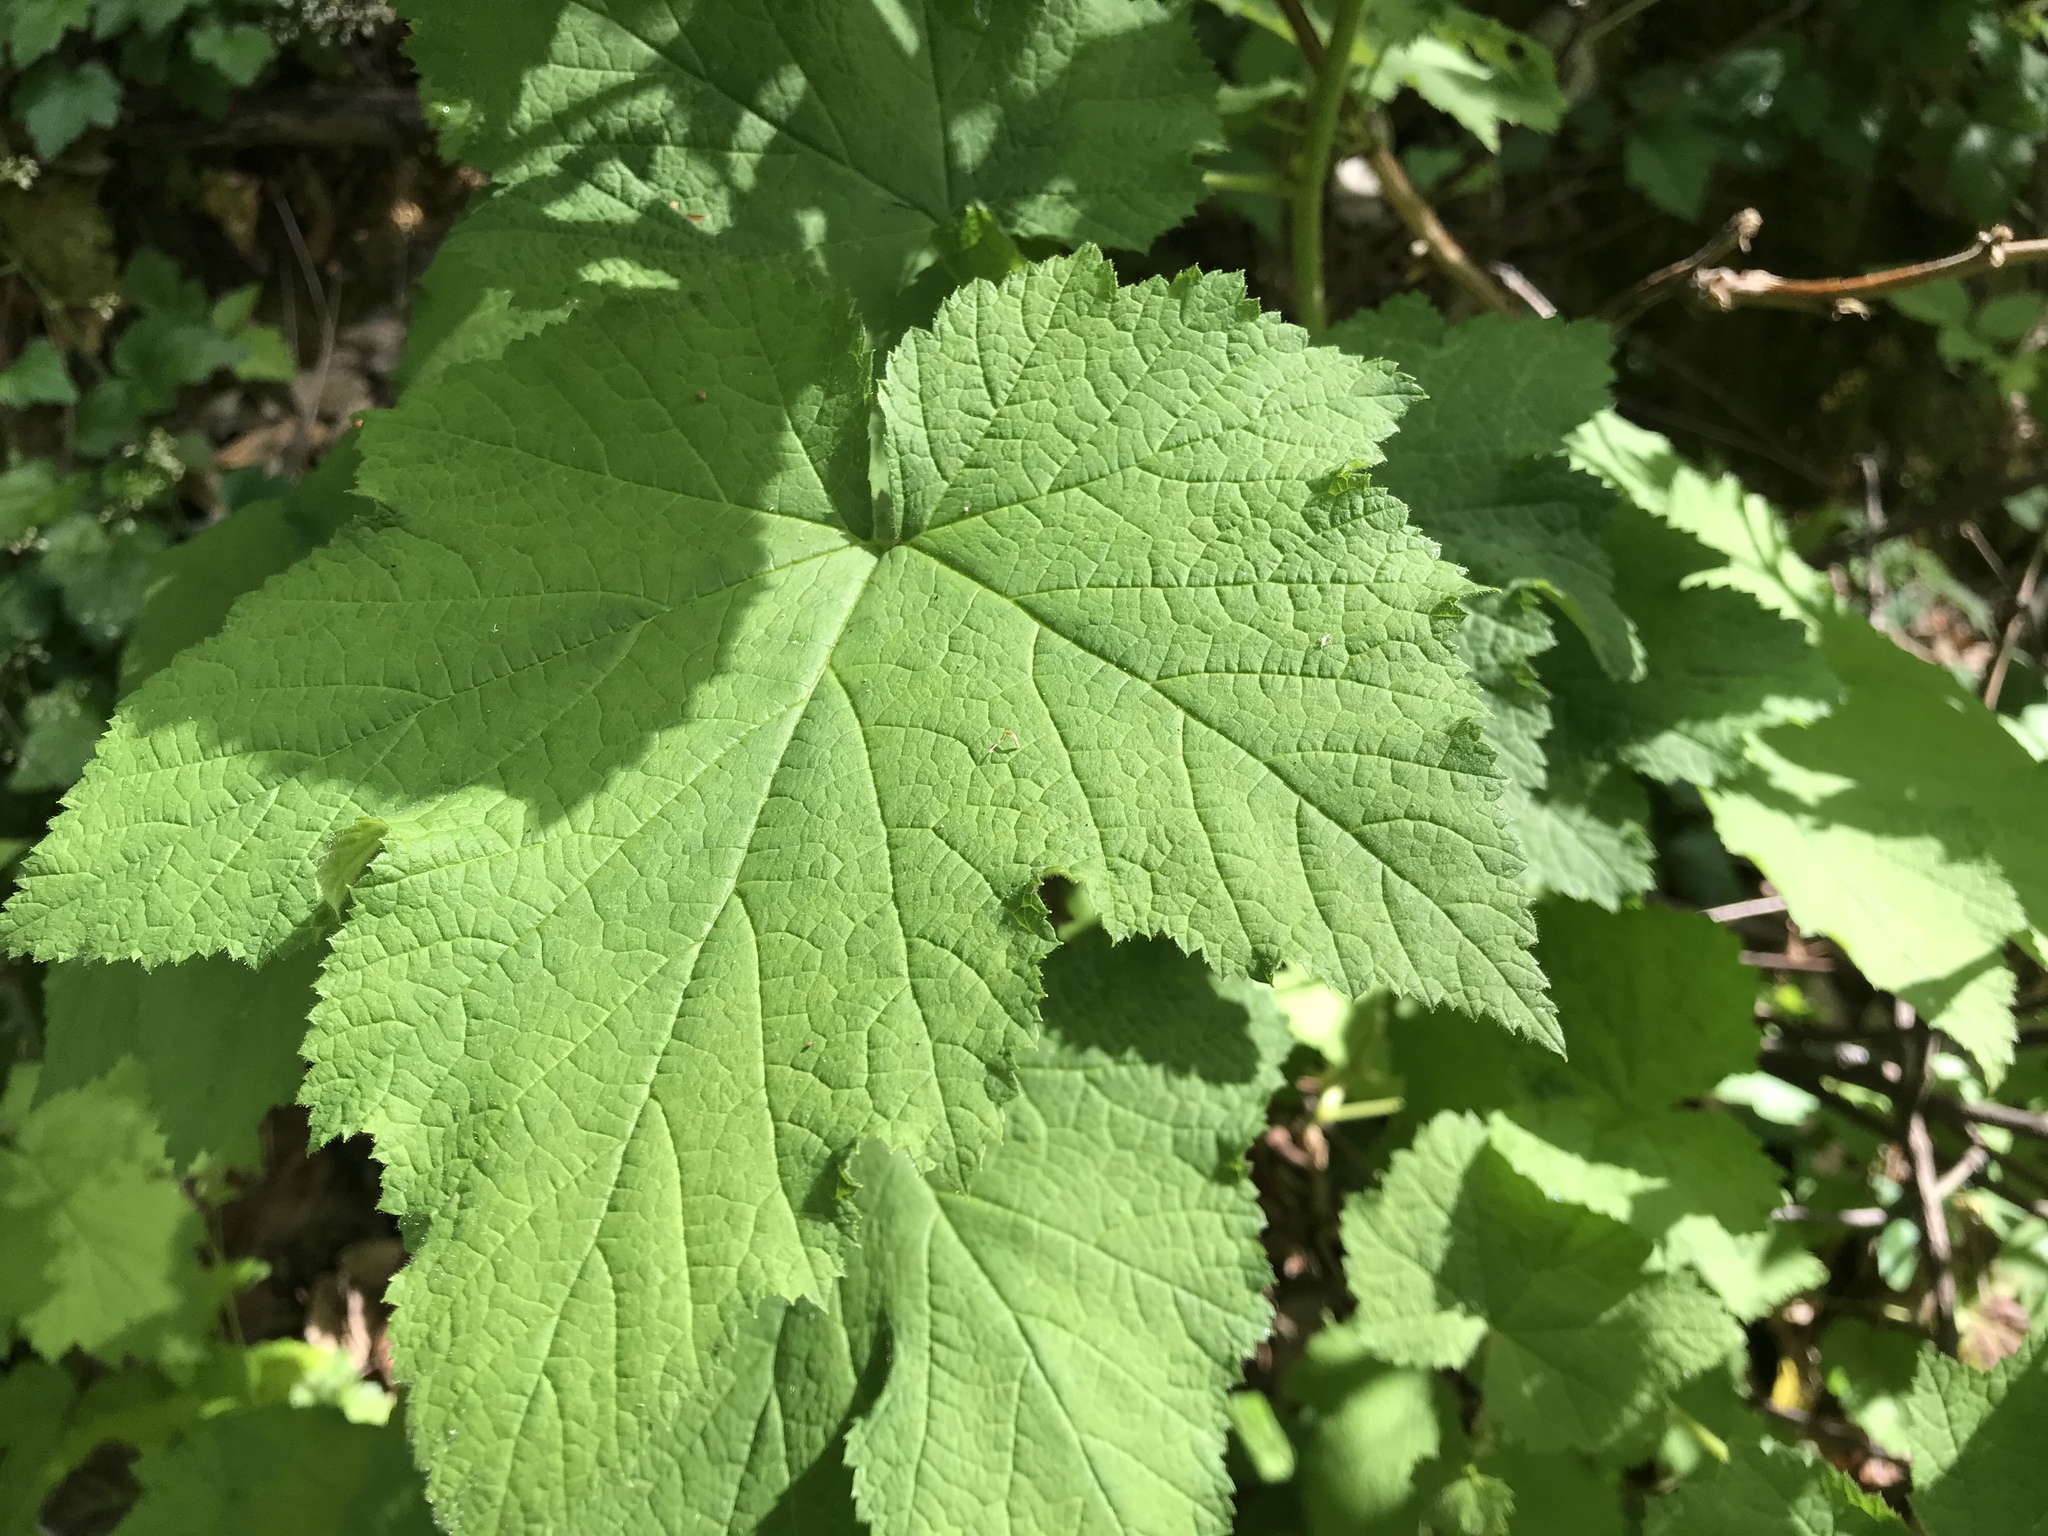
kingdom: Plantae
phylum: Tracheophyta
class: Magnoliopsida
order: Rosales
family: Rosaceae
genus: Rubus
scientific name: Rubus parviflorus
